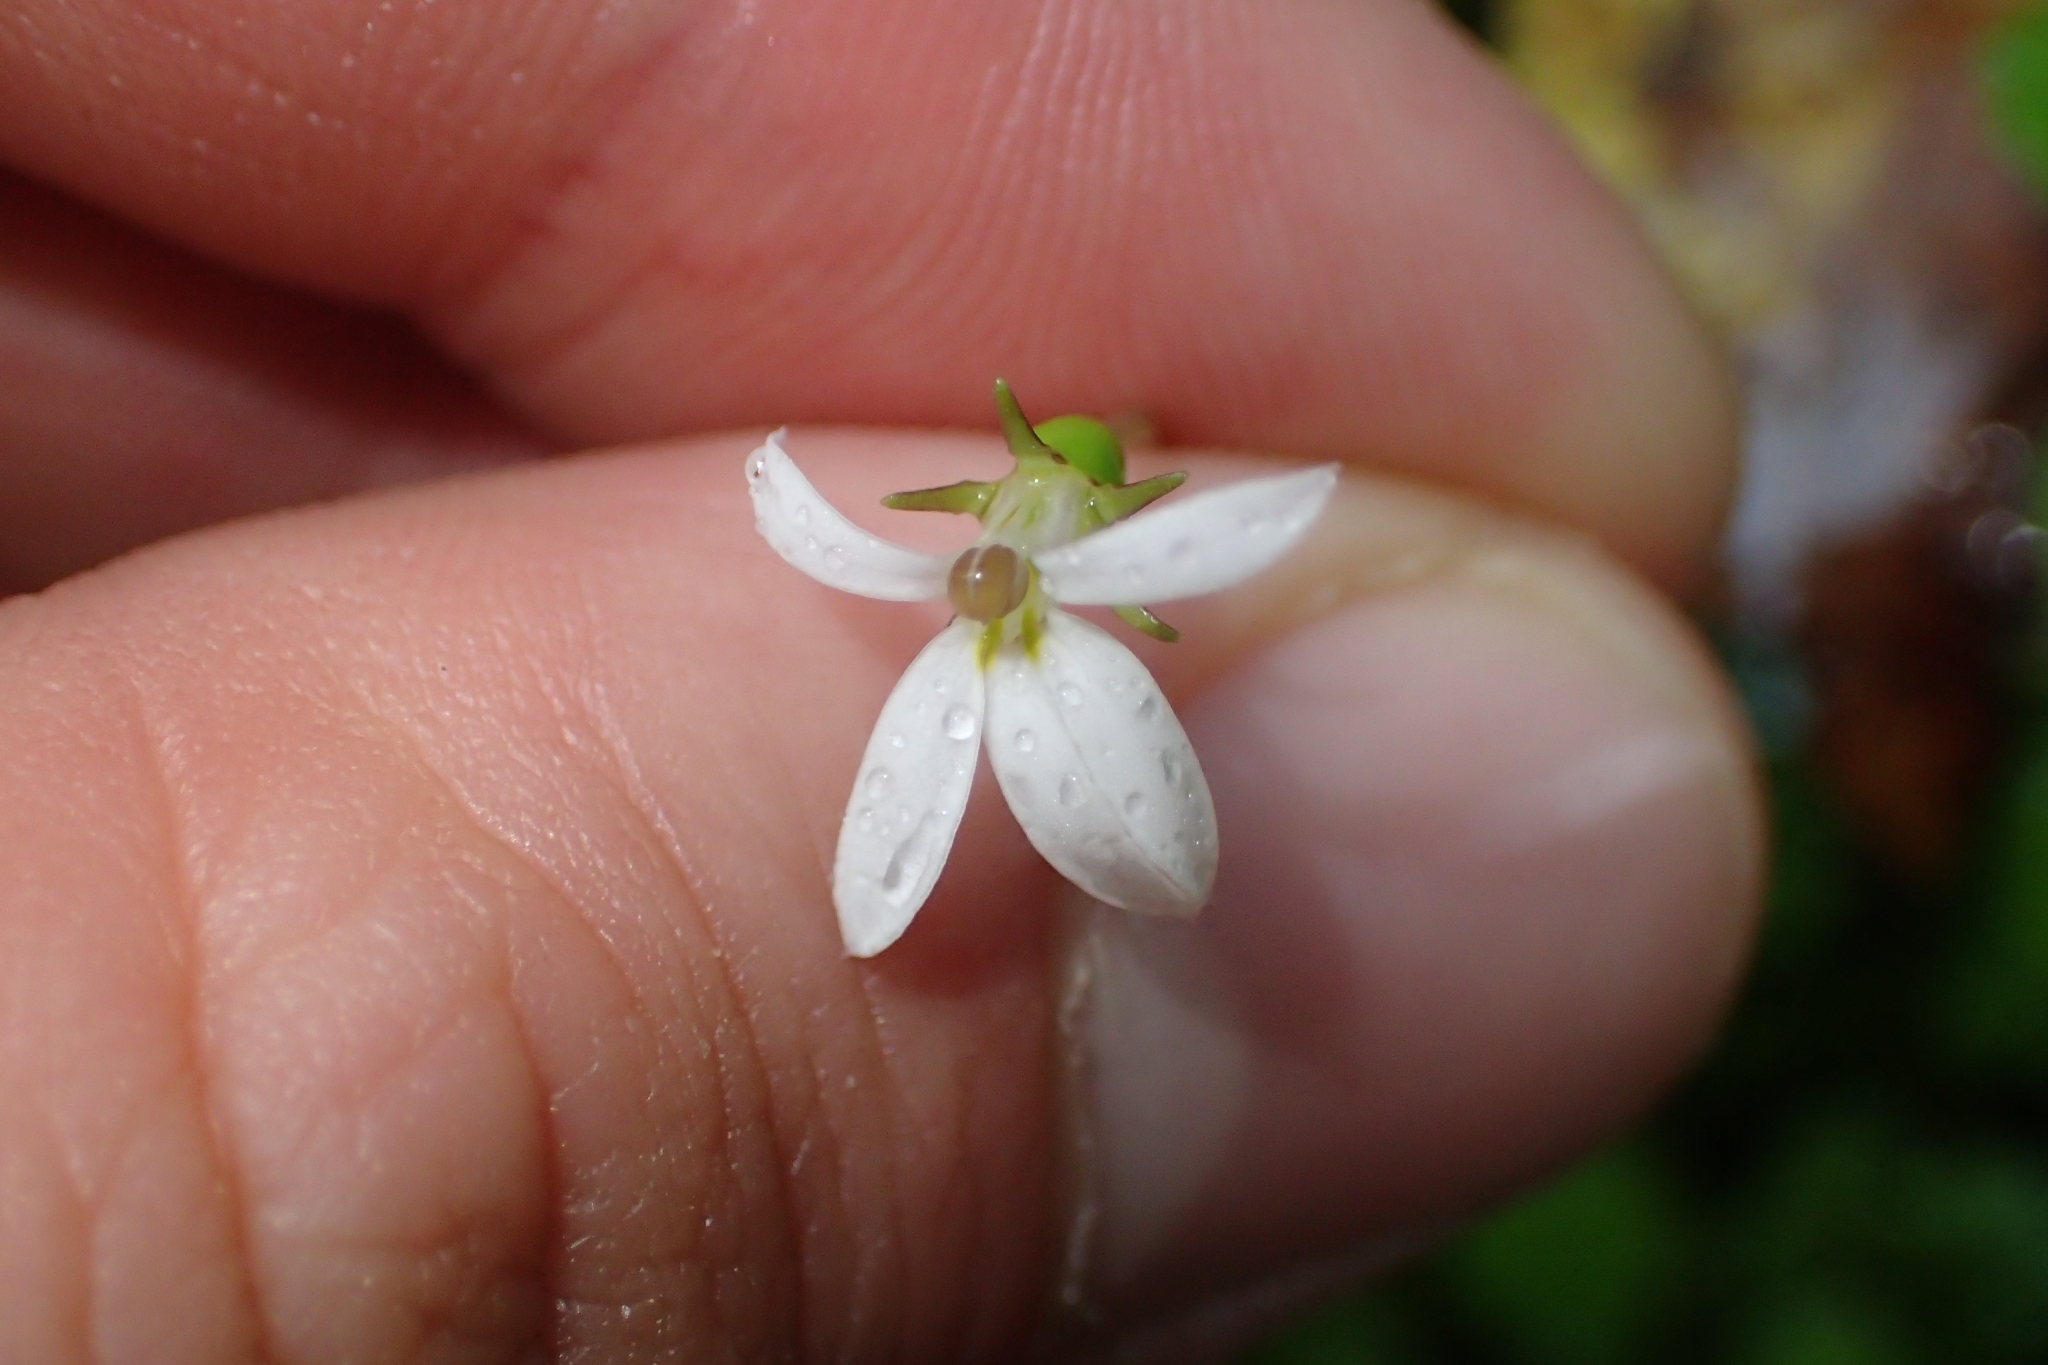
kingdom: Plantae
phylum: Tracheophyta
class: Magnoliopsida
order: Asterales
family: Campanulaceae
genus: Lobelia
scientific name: Lobelia angulata
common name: Lawn lobelia
